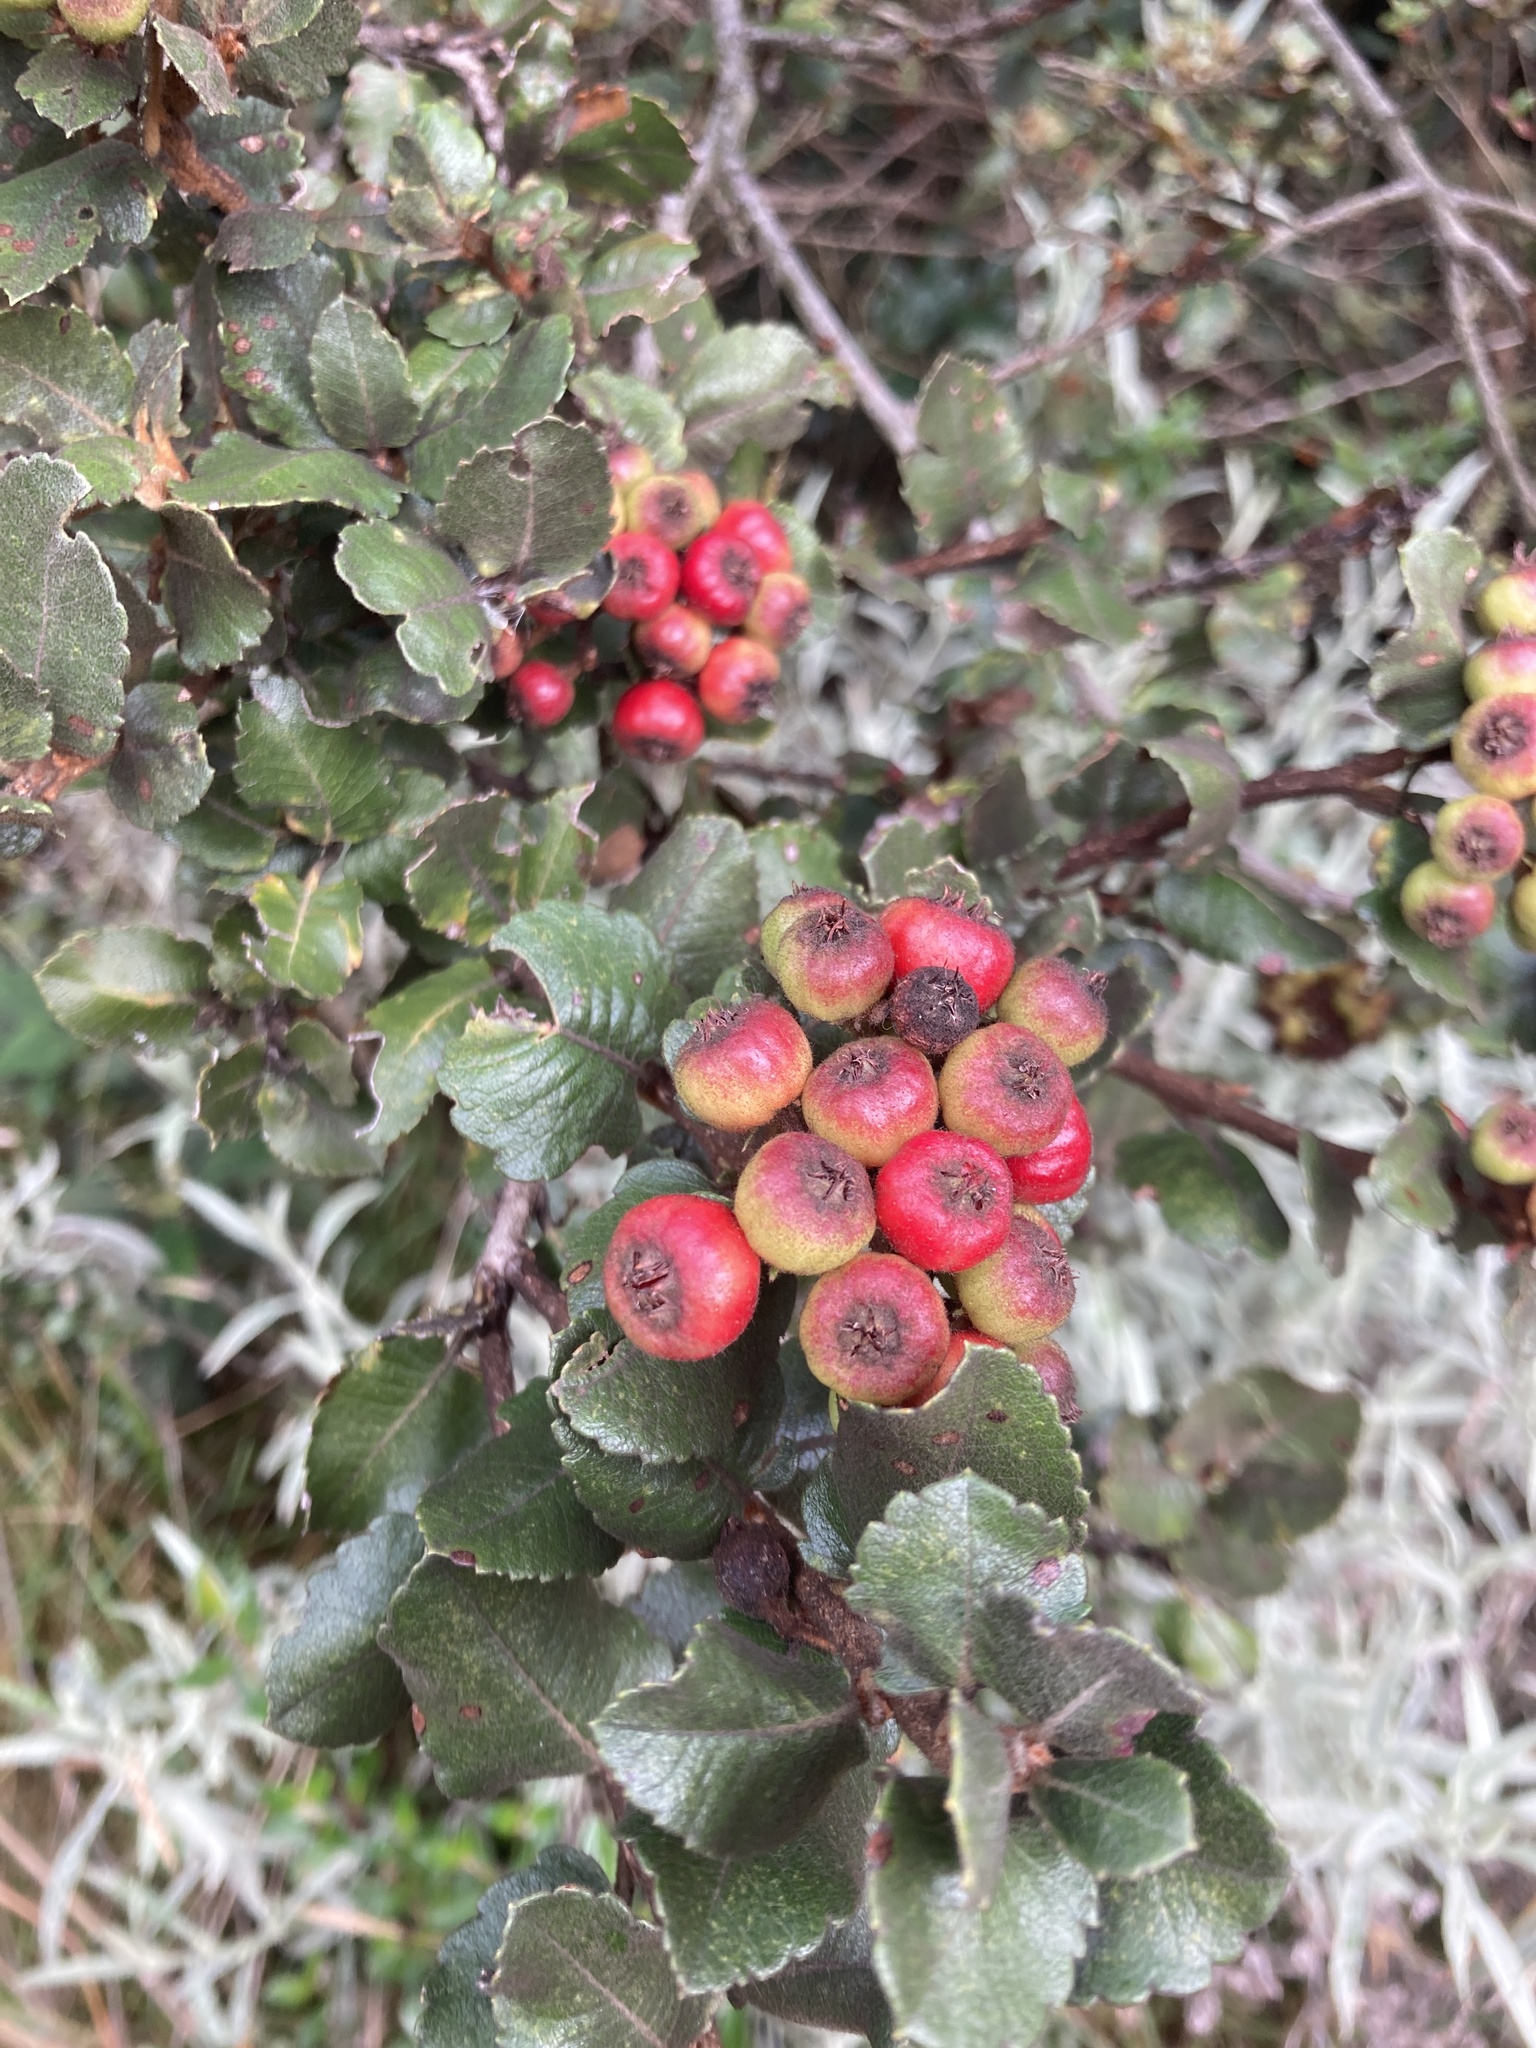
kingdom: Plantae
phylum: Tracheophyta
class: Magnoliopsida
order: Rosales
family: Rosaceae
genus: Hesperomeles
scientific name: Hesperomeles goudotiana
